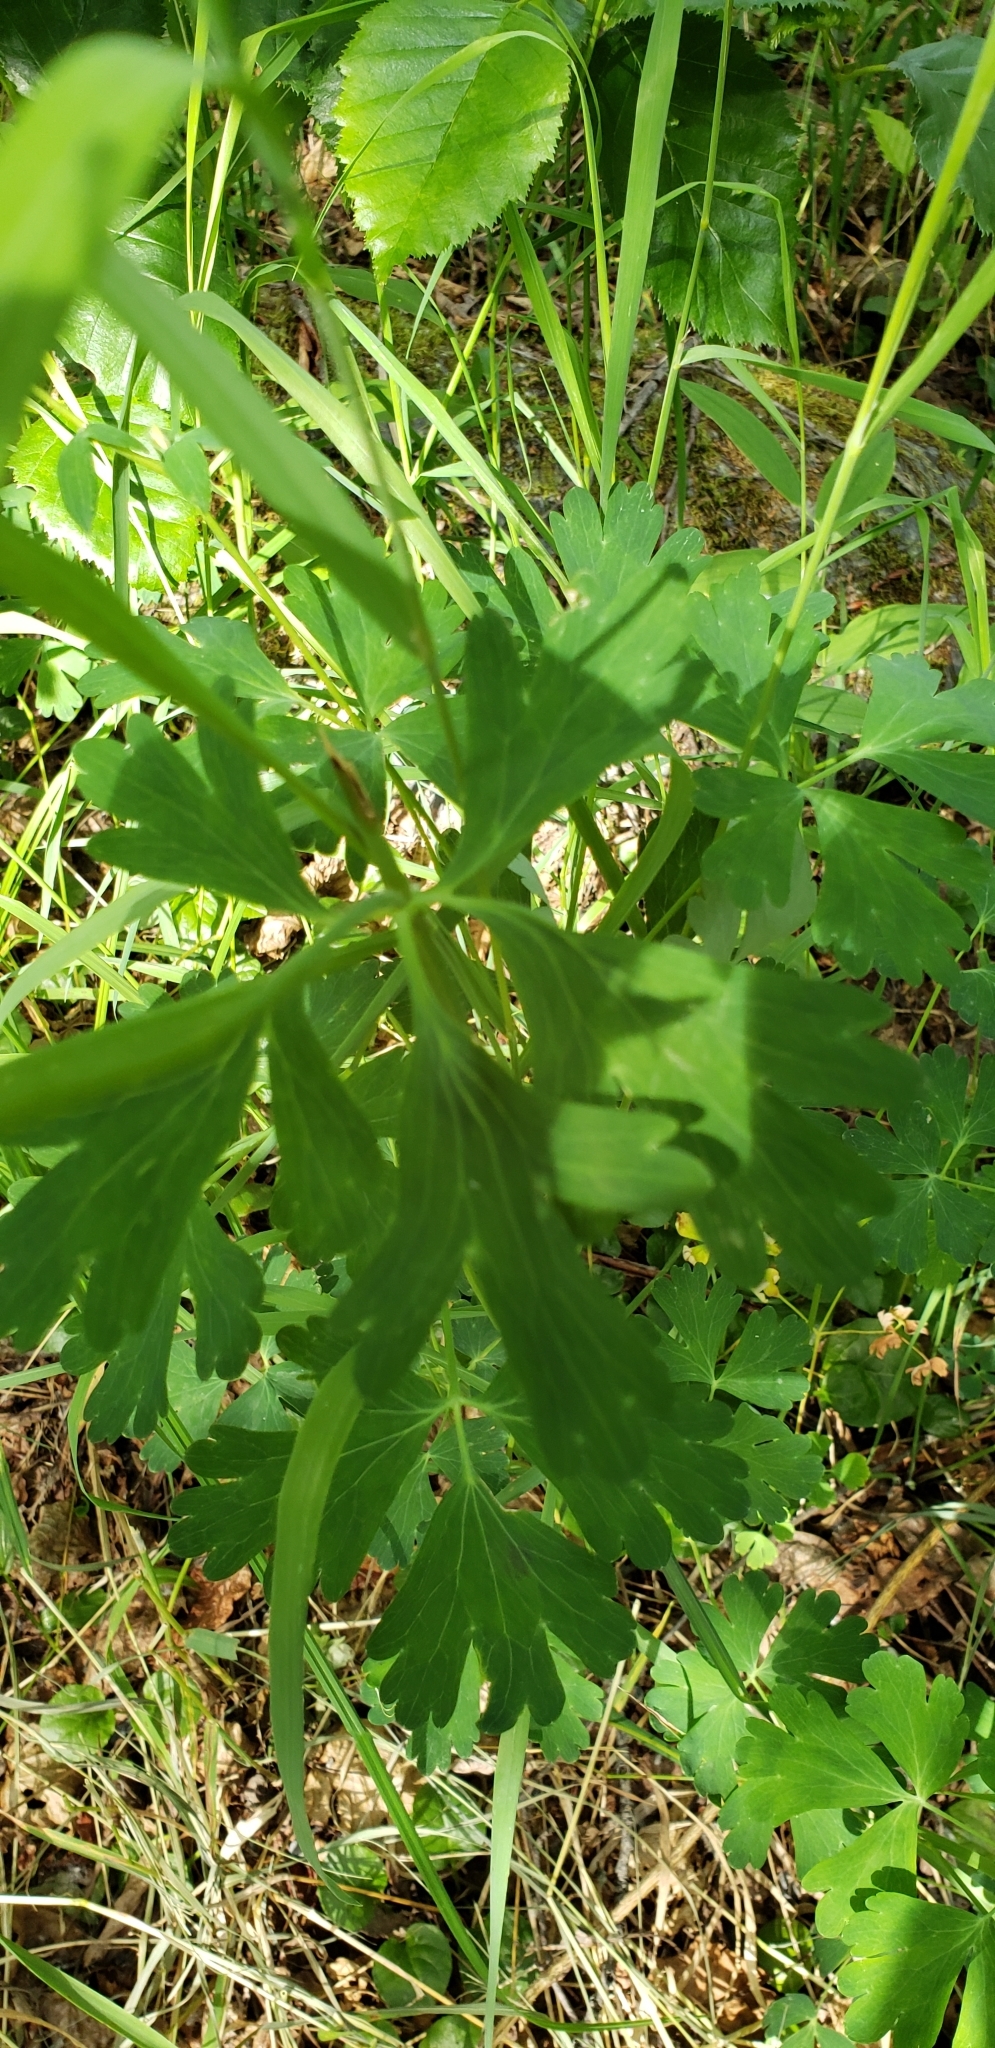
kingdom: Plantae
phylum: Tracheophyta
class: Magnoliopsida
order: Ranunculales
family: Ranunculaceae
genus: Aquilegia
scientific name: Aquilegia formosa
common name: Sitka columbine
